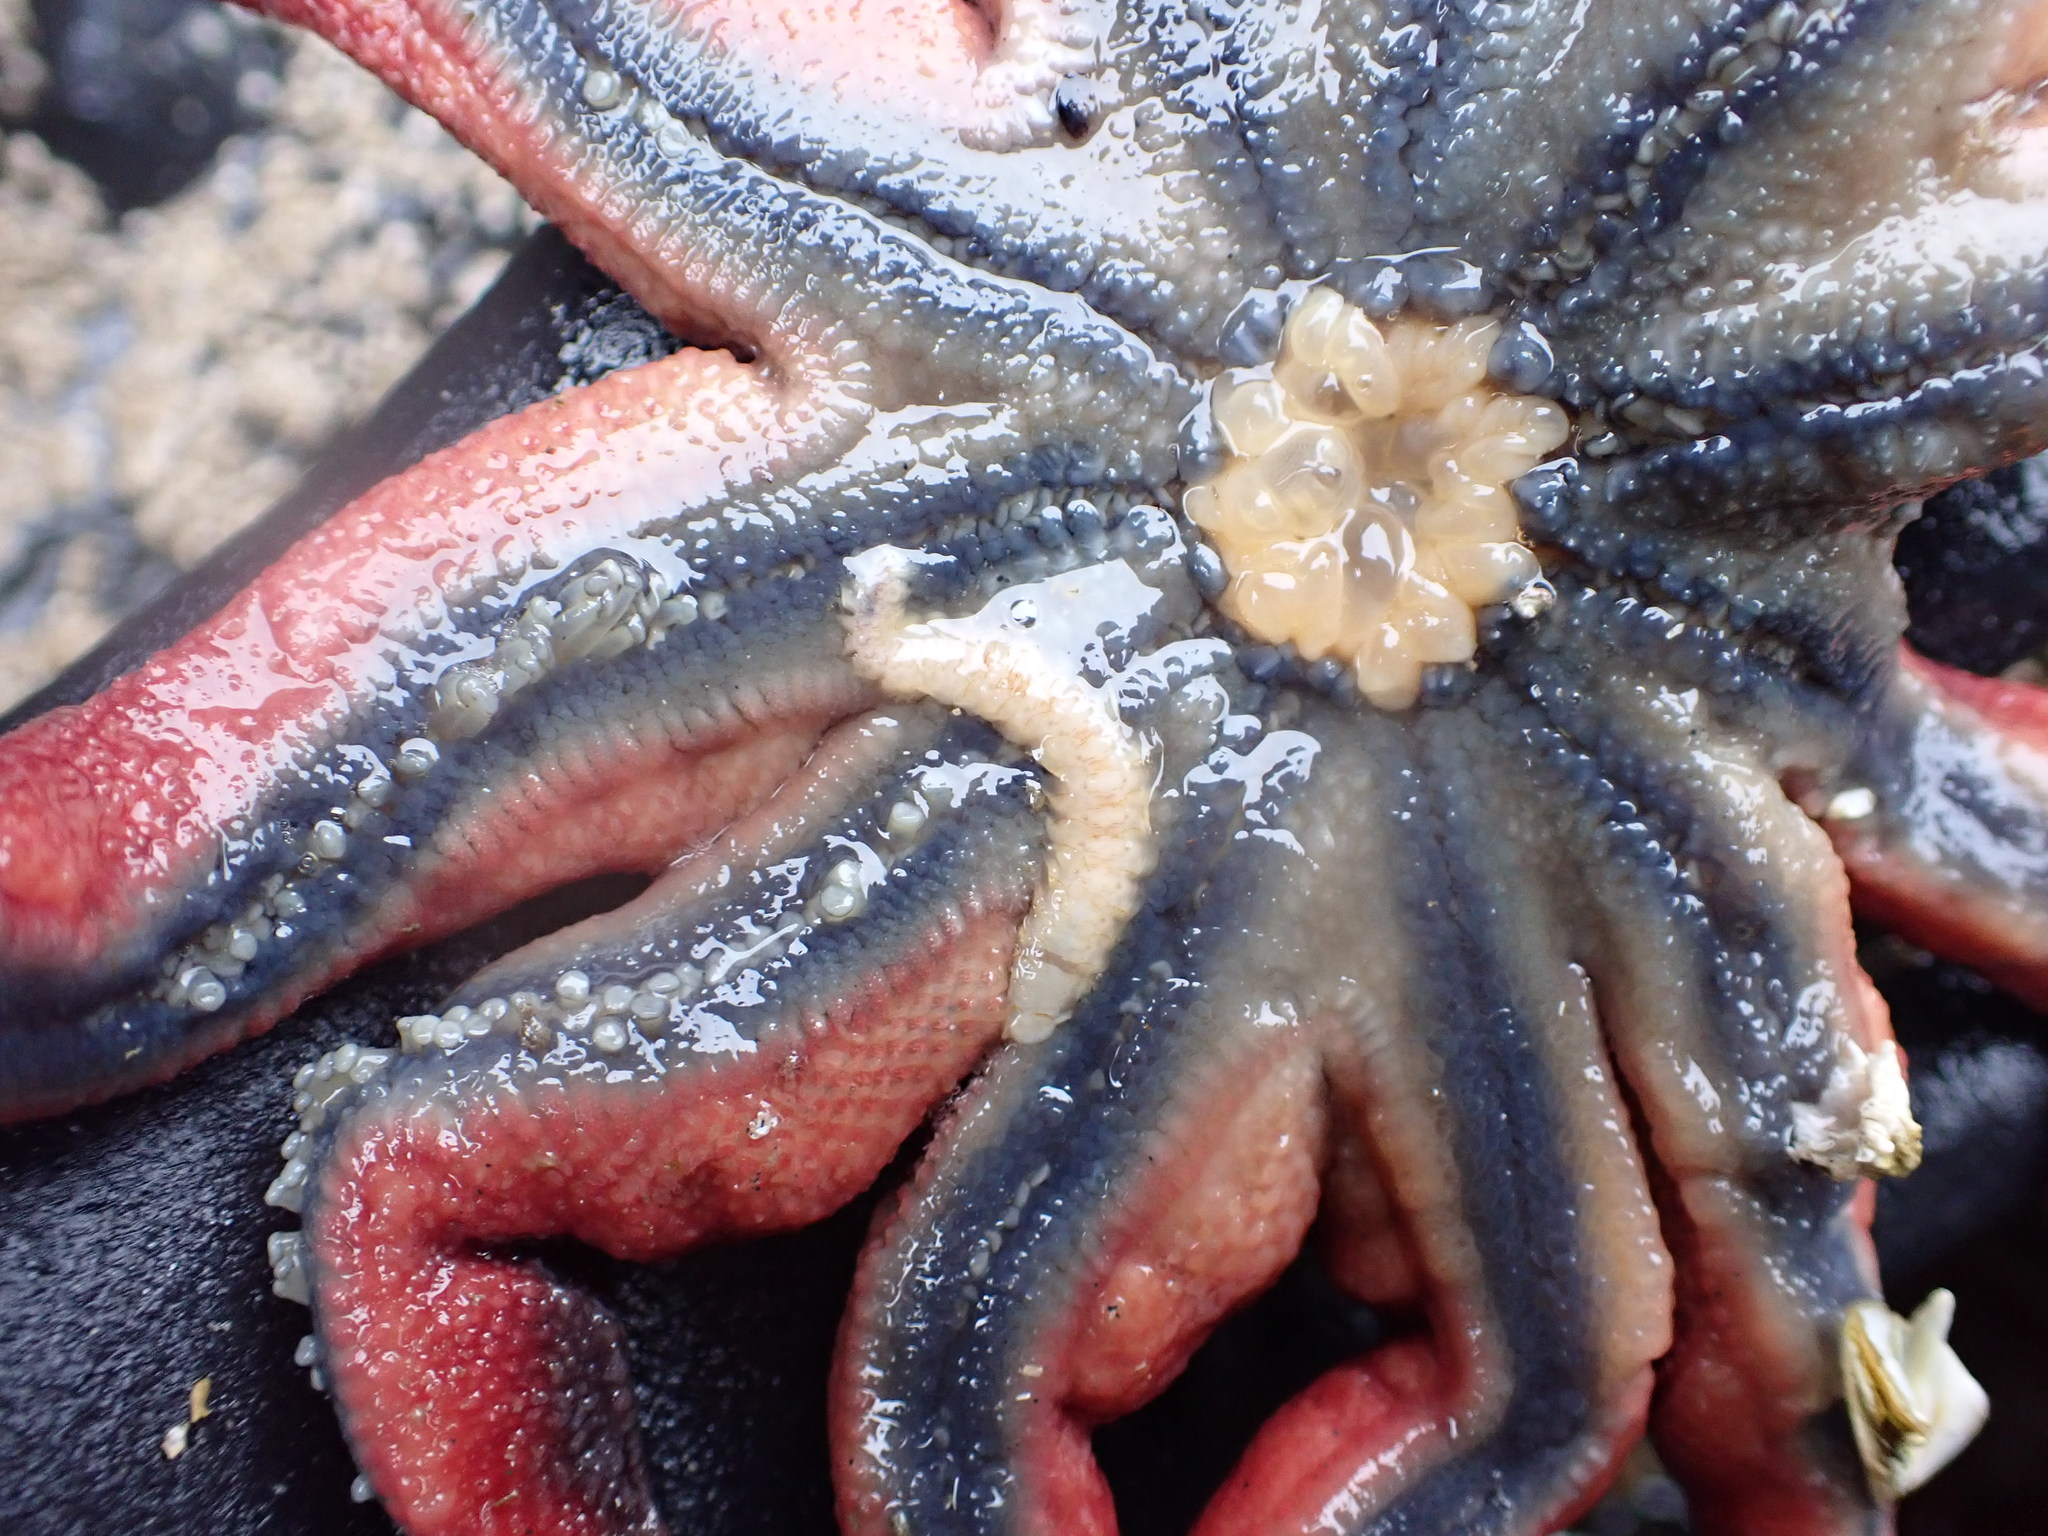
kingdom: Animalia
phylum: Annelida
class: Polychaeta
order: Phyllodocida
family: Polynoidae
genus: Arctonoe
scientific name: Arctonoe vittata
